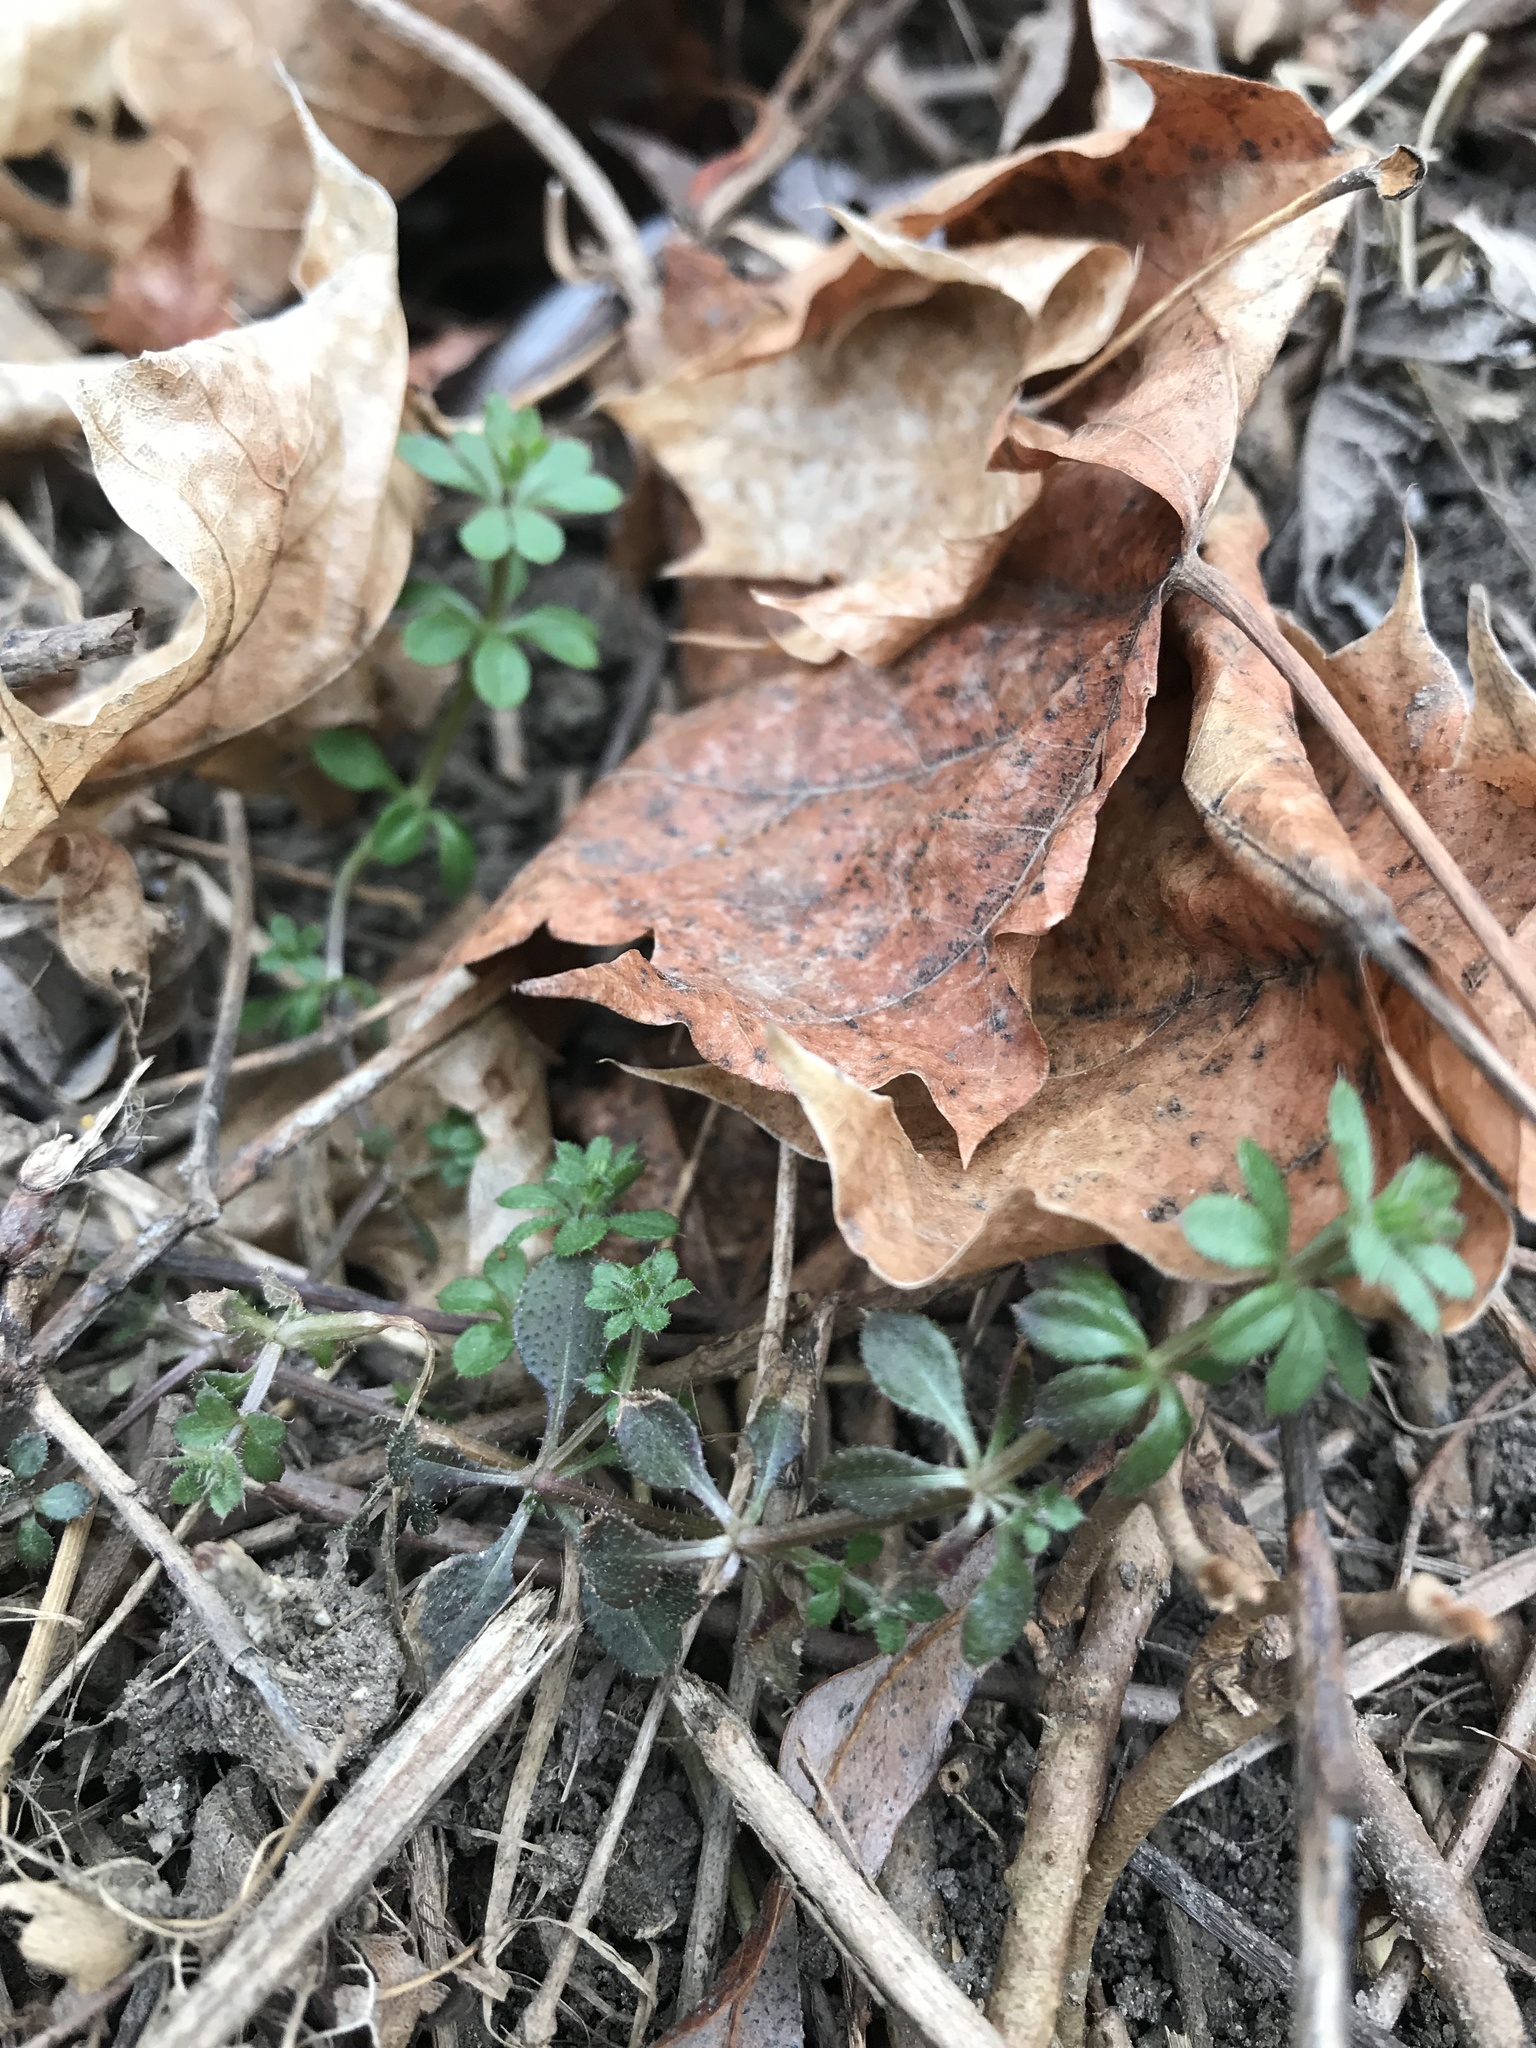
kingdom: Plantae
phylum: Tracheophyta
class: Magnoliopsida
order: Gentianales
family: Rubiaceae
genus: Galium
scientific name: Galium aparine
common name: Cleavers
